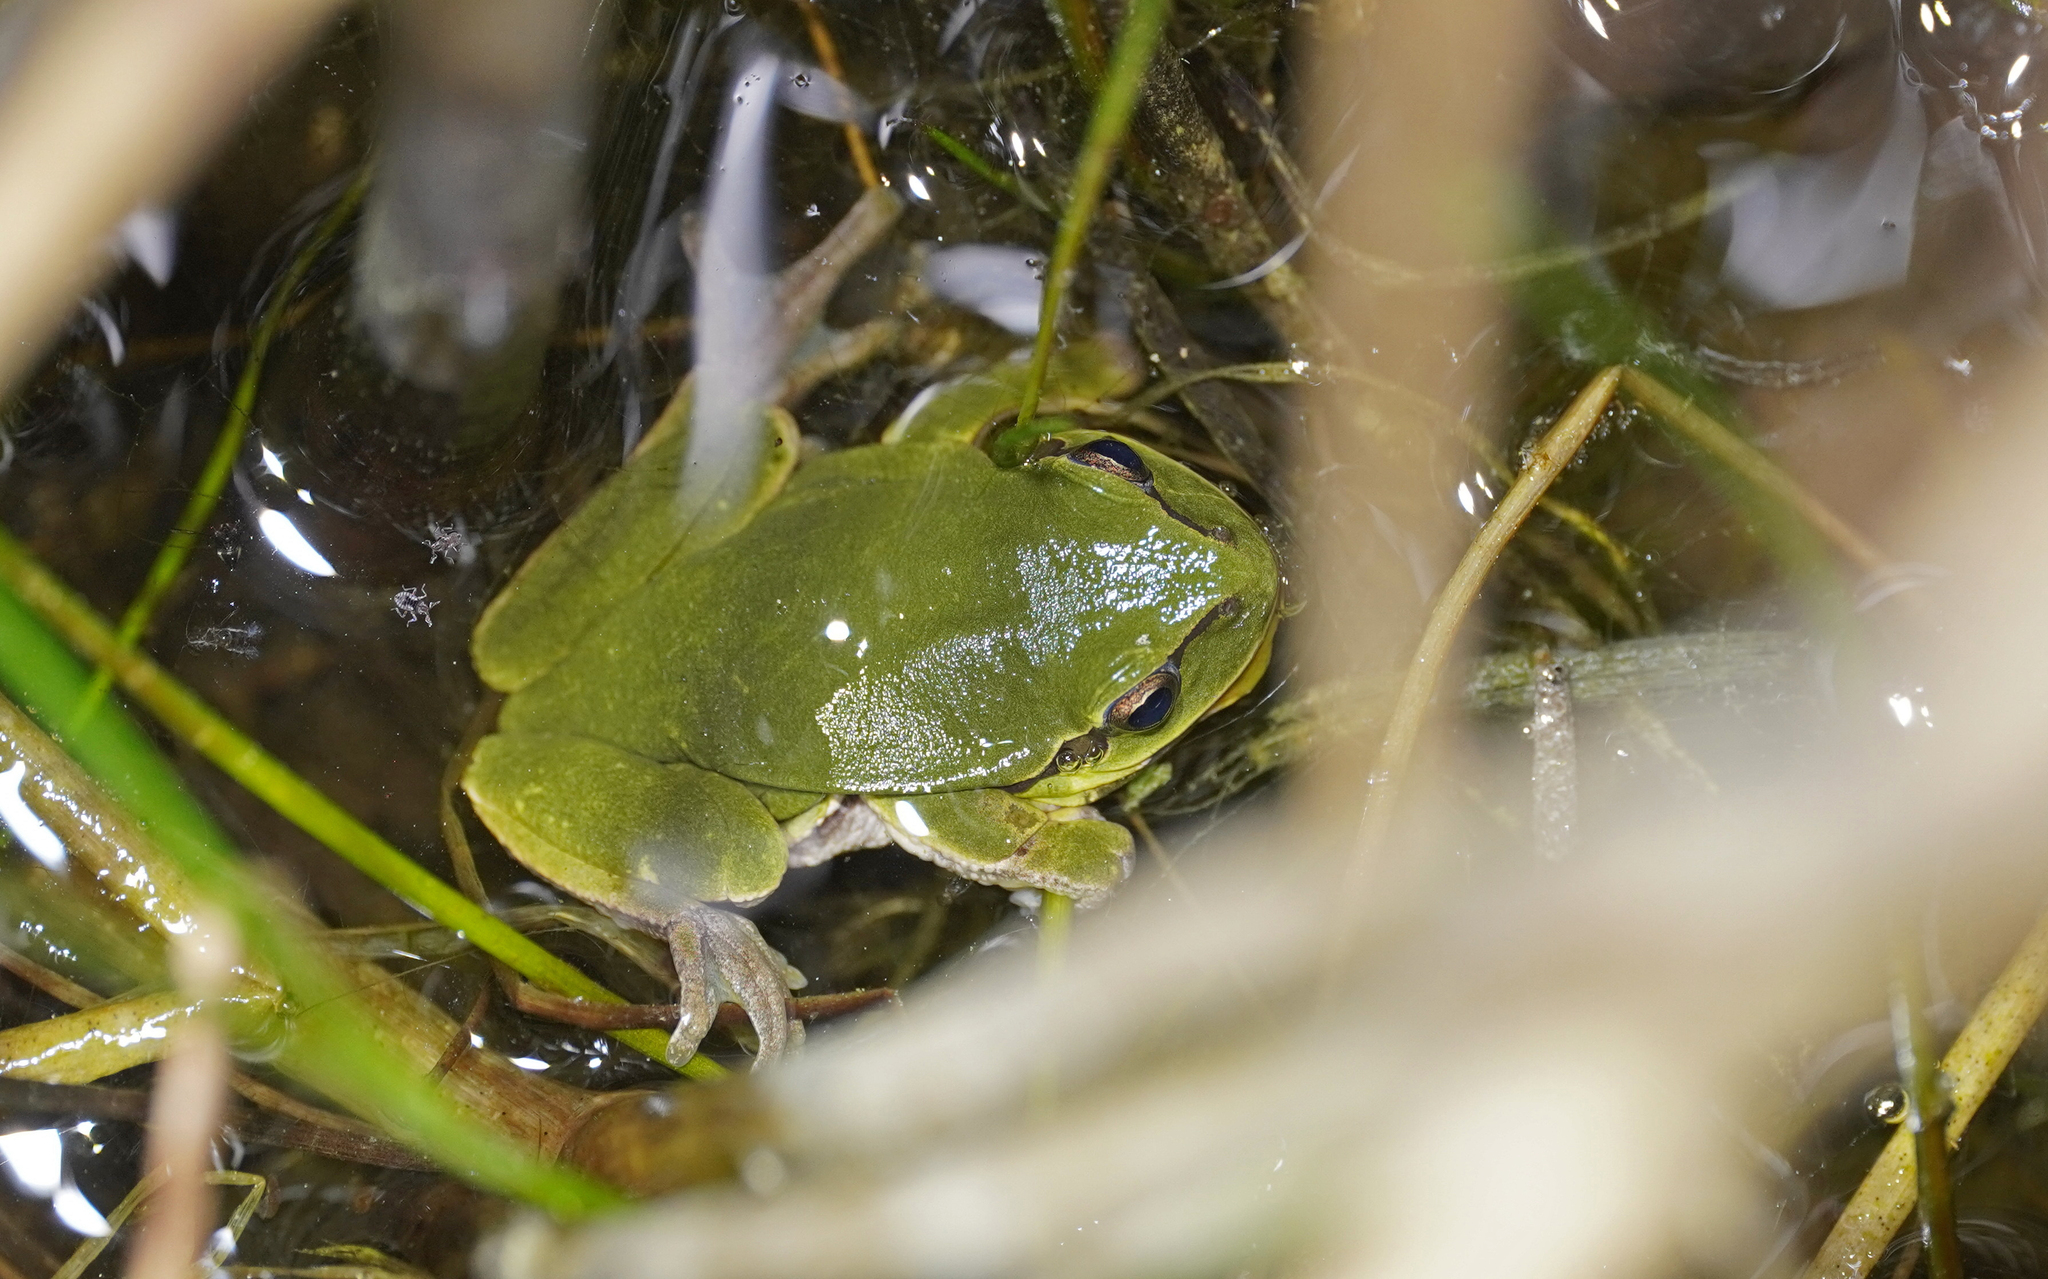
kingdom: Animalia
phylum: Chordata
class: Amphibia
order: Anura
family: Hylidae
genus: Hyla
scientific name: Hyla arborea
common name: Common tree frog
